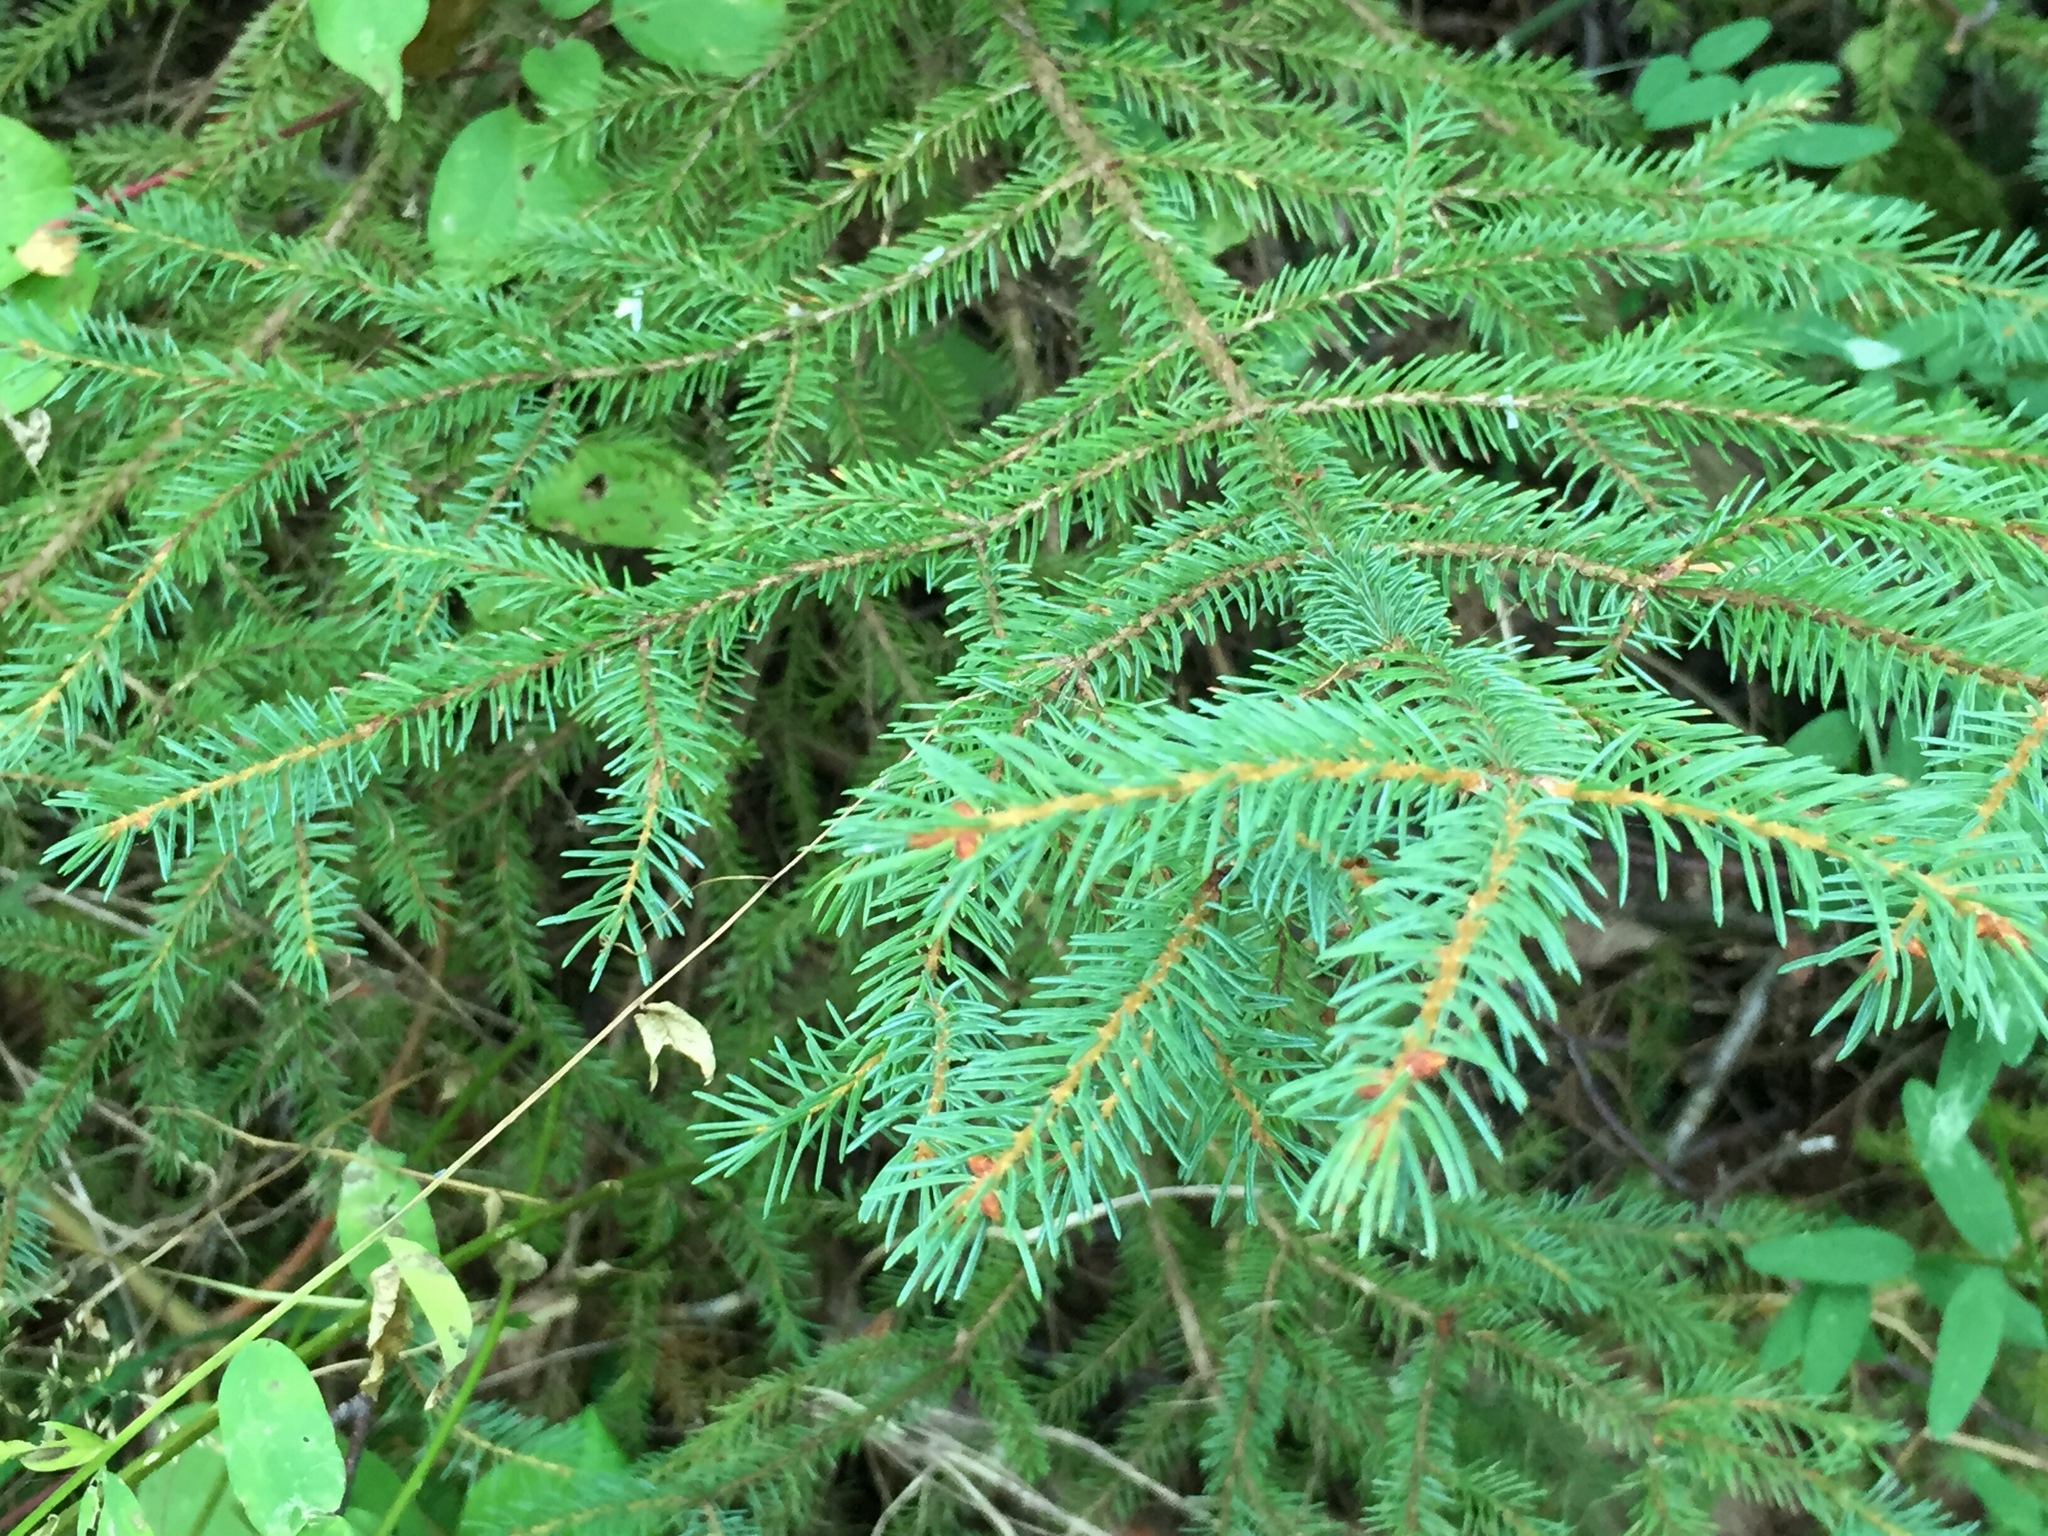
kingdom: Plantae
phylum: Tracheophyta
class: Pinopsida
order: Pinales
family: Pinaceae
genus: Picea
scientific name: Picea glauca
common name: White spruce
